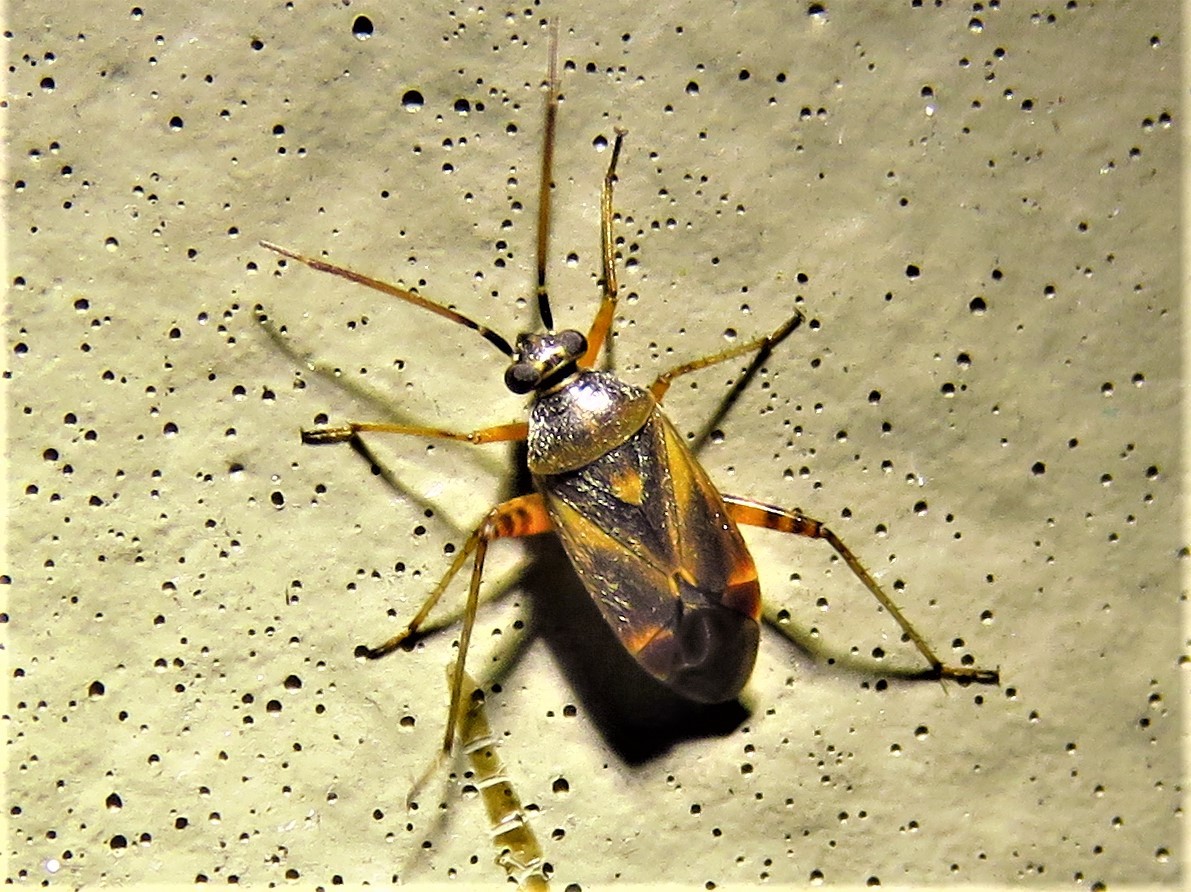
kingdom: Animalia
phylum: Arthropoda
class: Insecta
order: Hemiptera
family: Miridae
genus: Polymerus
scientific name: Polymerus basalis
